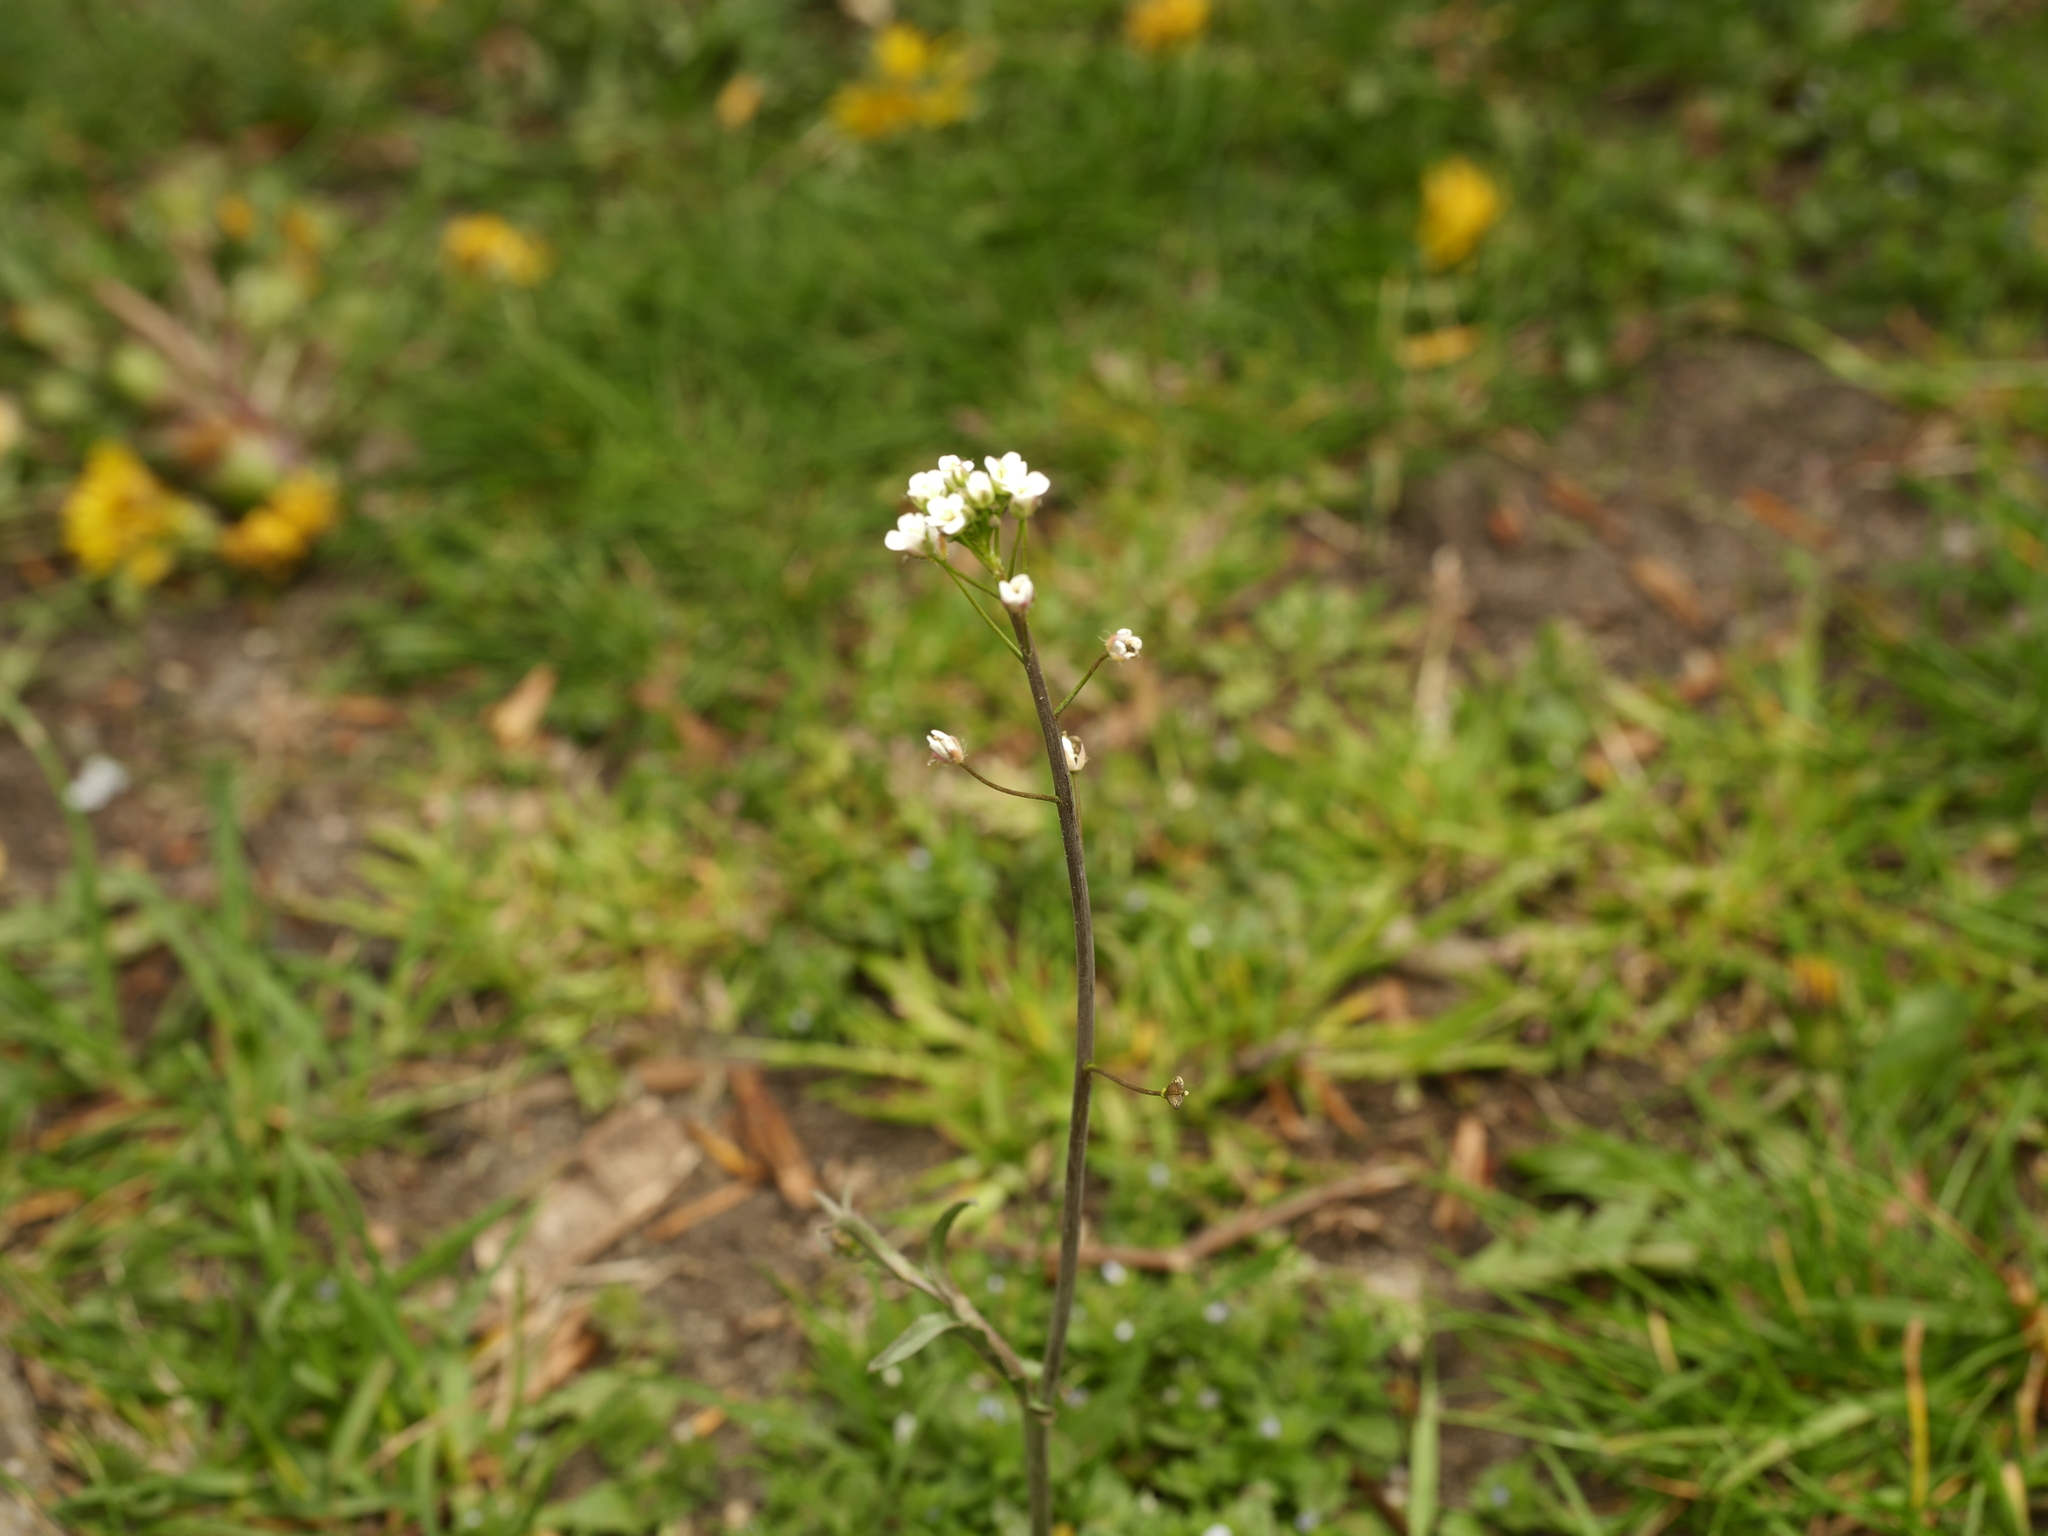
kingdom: Plantae
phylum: Tracheophyta
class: Magnoliopsida
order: Brassicales
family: Brassicaceae
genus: Capsella
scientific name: Capsella bursa-pastoris
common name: Shepherd's purse
